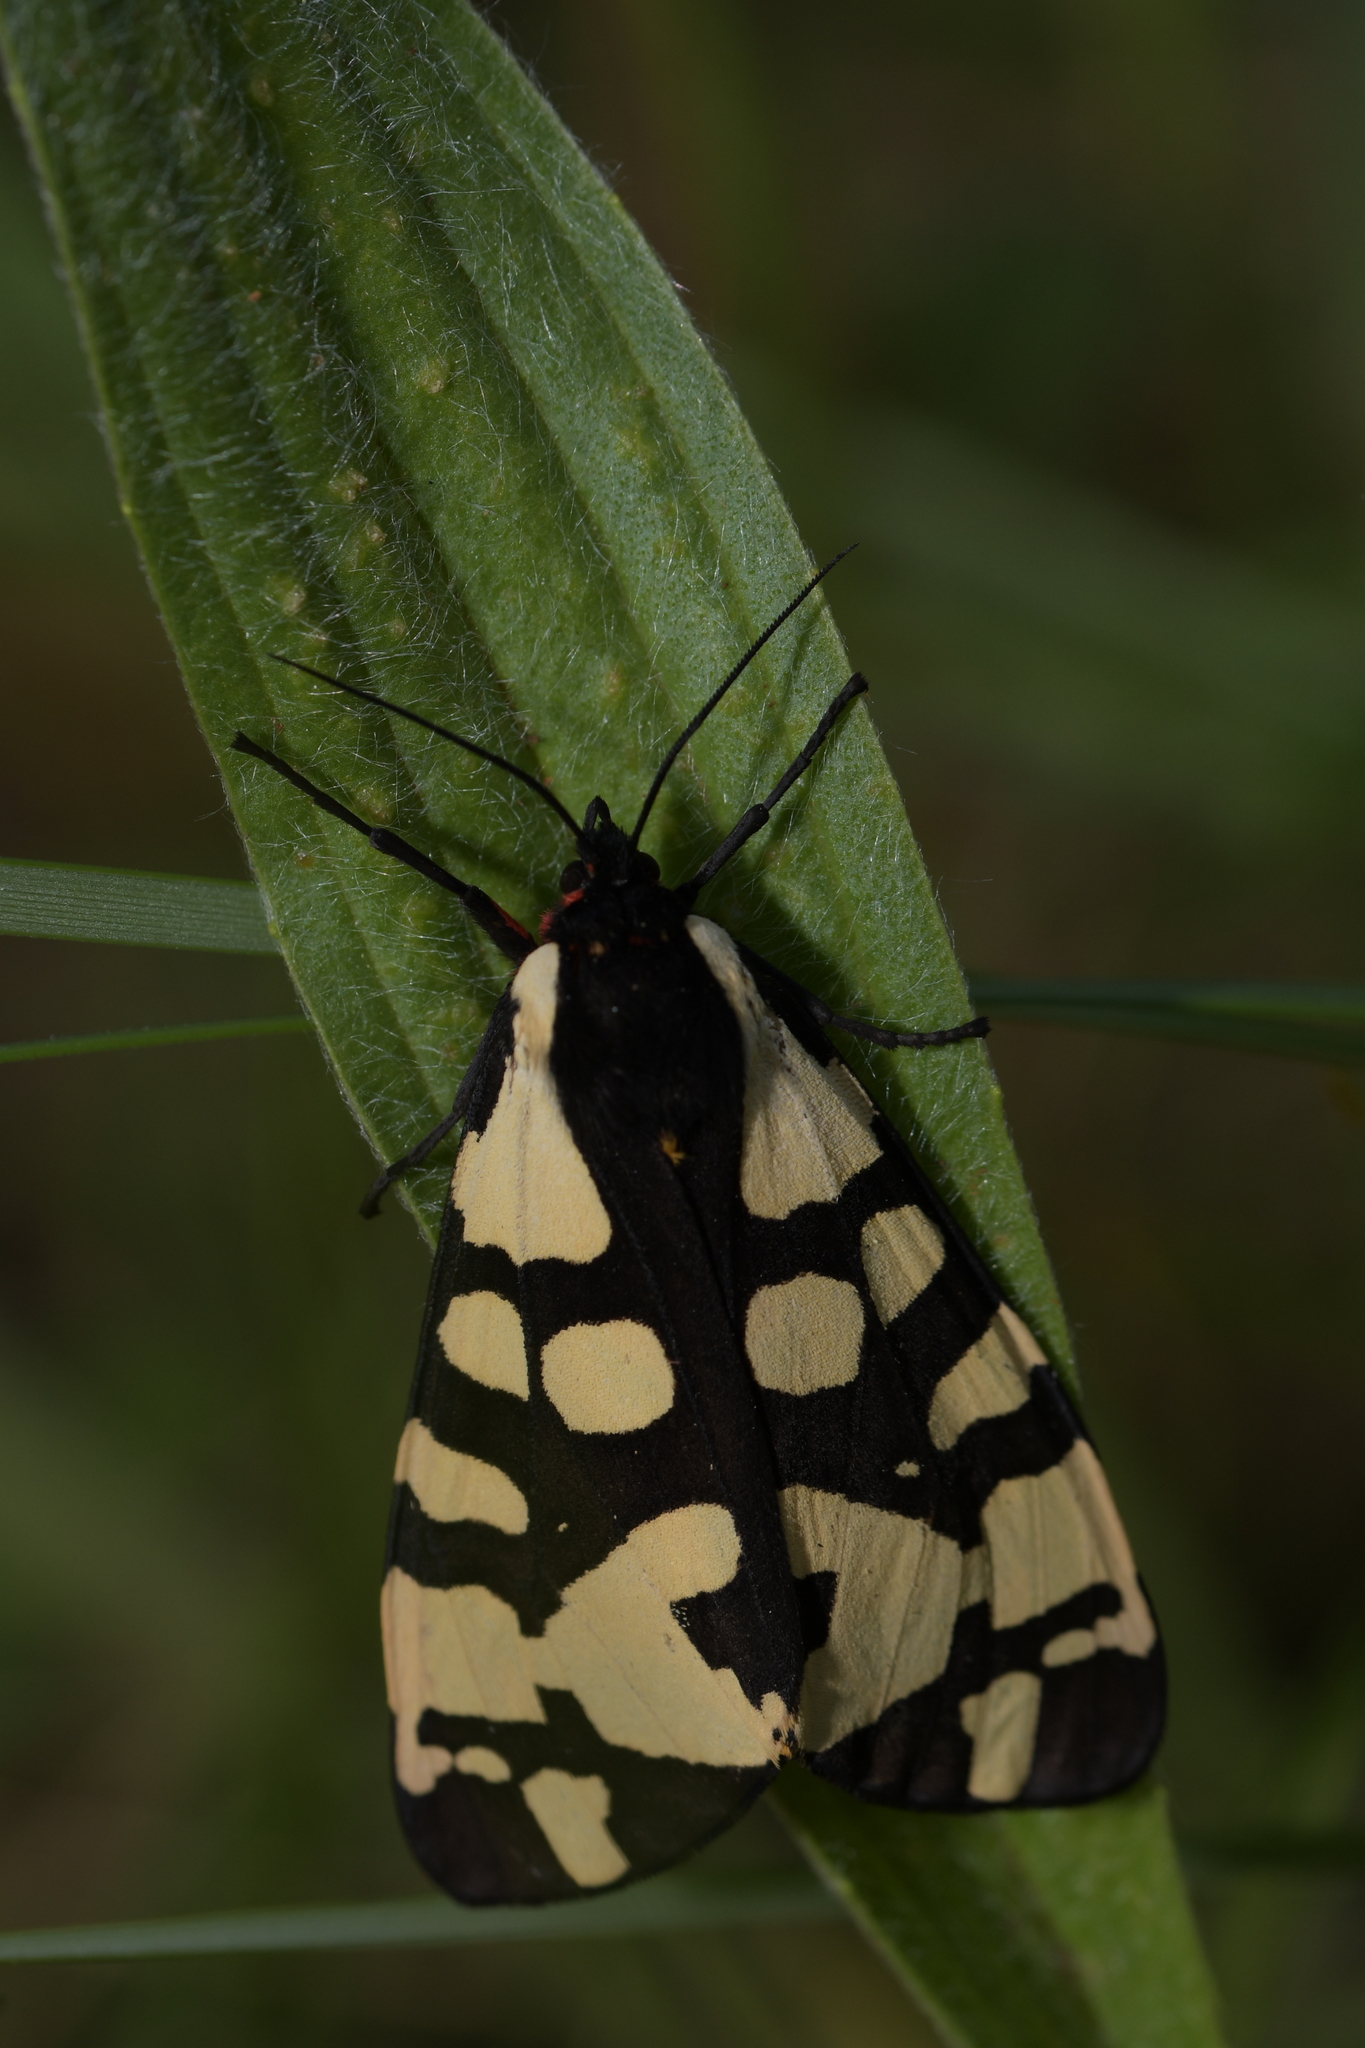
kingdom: Animalia
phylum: Arthropoda
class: Insecta
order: Lepidoptera
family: Erebidae
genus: Epicallia
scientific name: Epicallia villica
